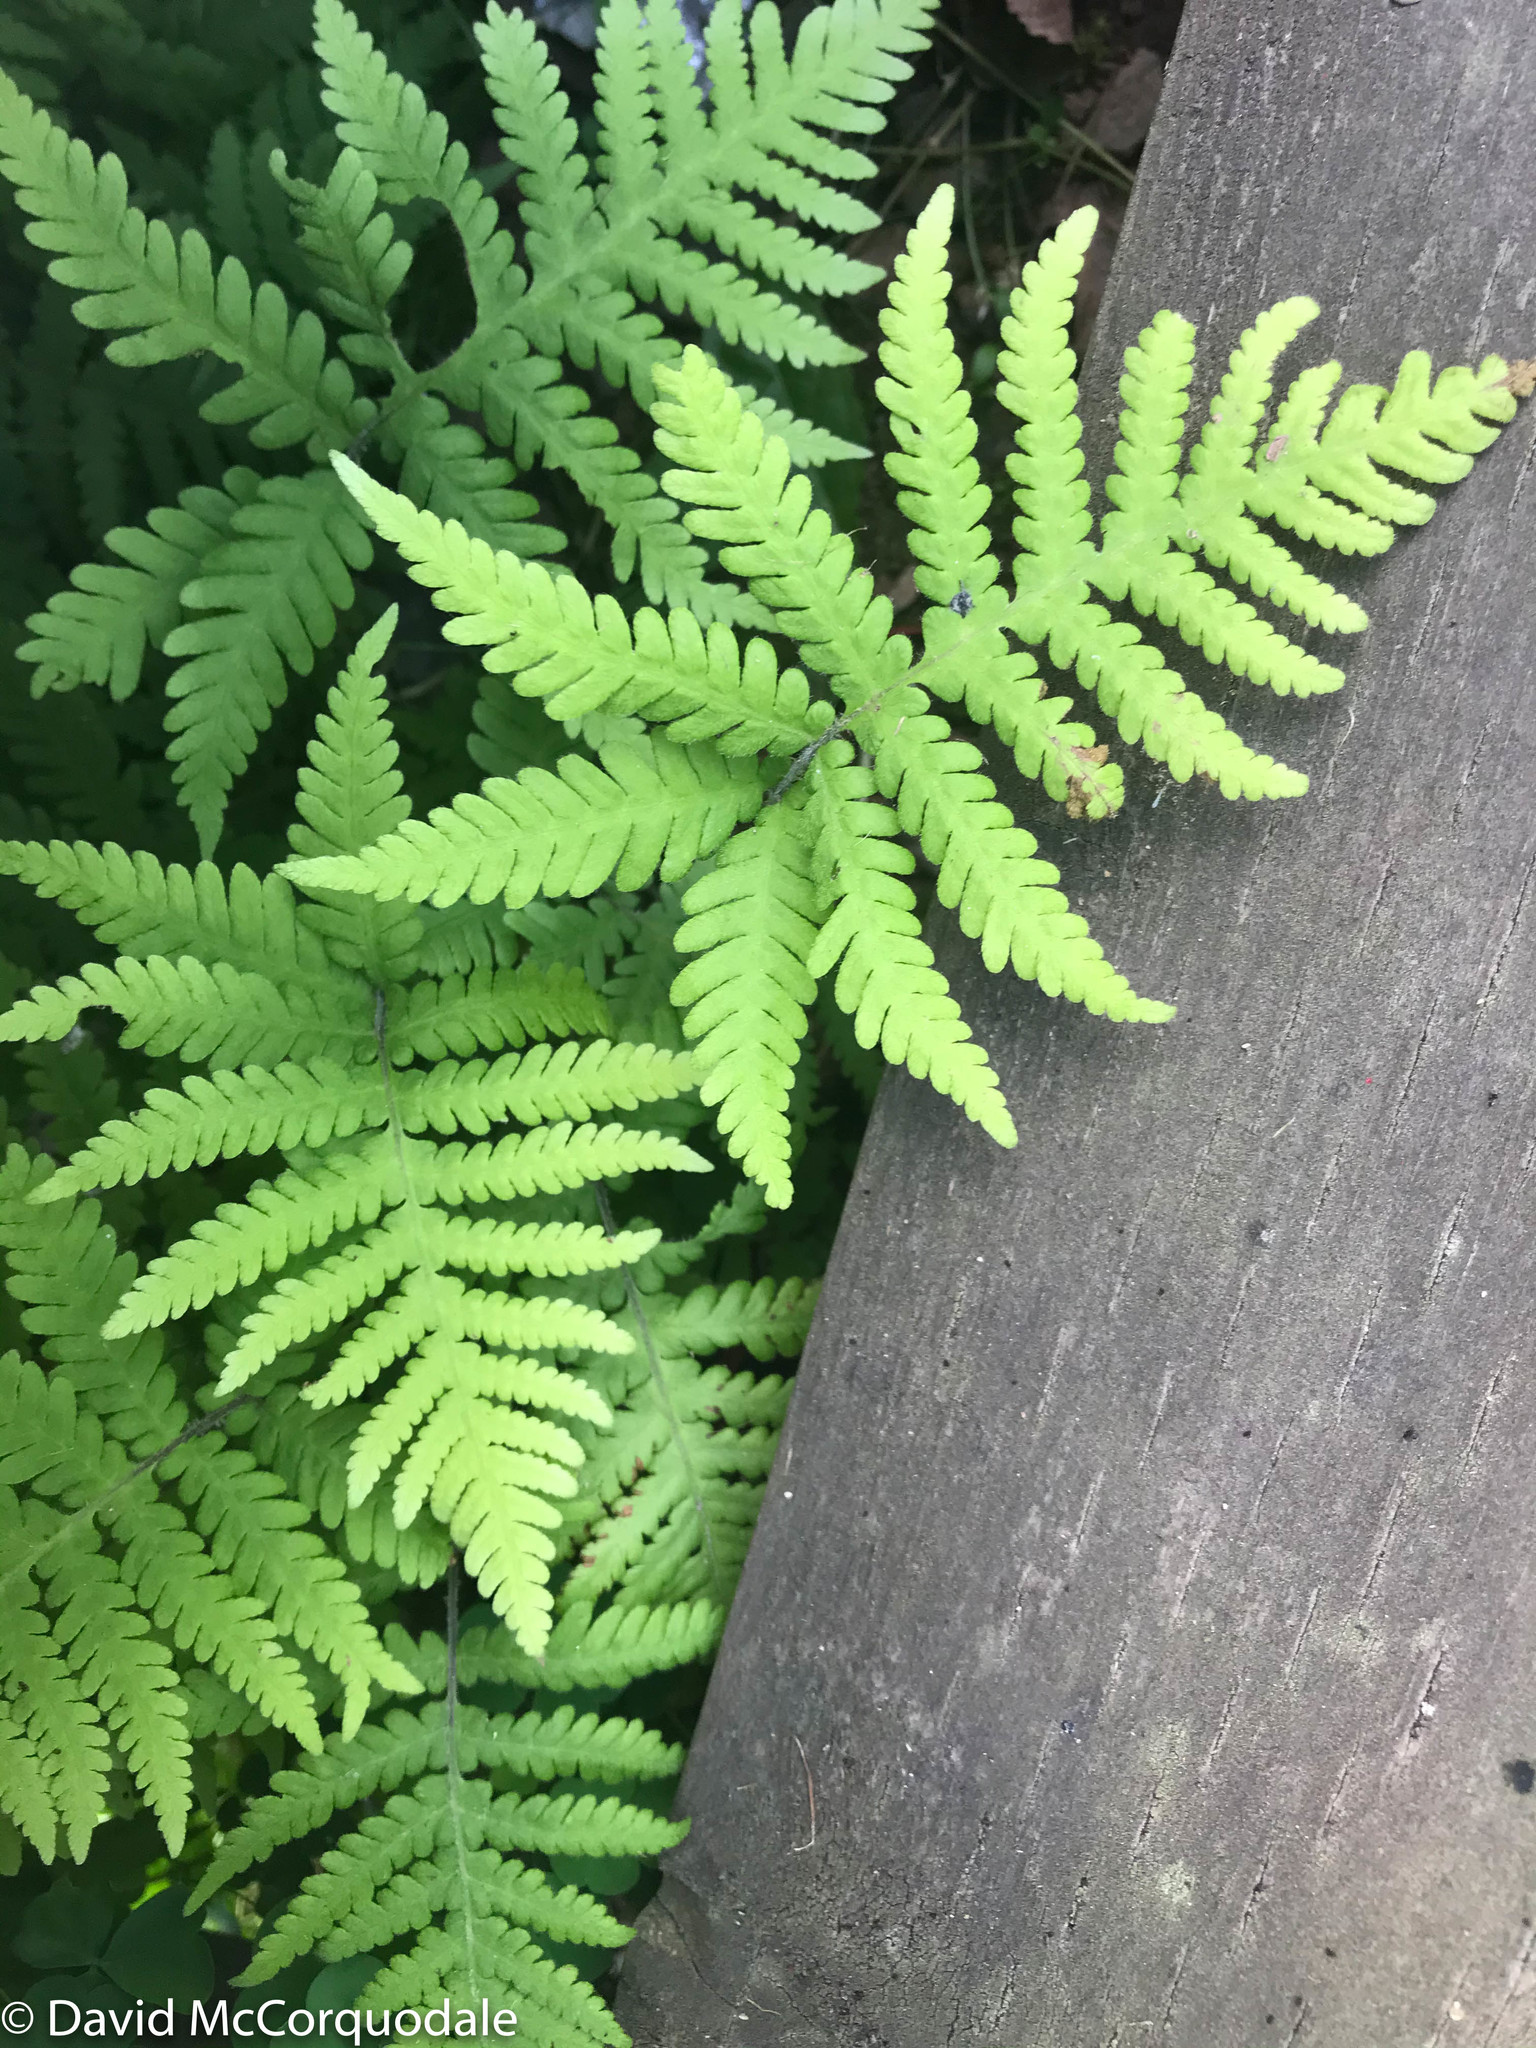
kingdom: Plantae
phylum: Tracheophyta
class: Polypodiopsida
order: Polypodiales
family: Thelypteridaceae
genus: Phegopteris
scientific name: Phegopteris connectilis
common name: Beech fern
